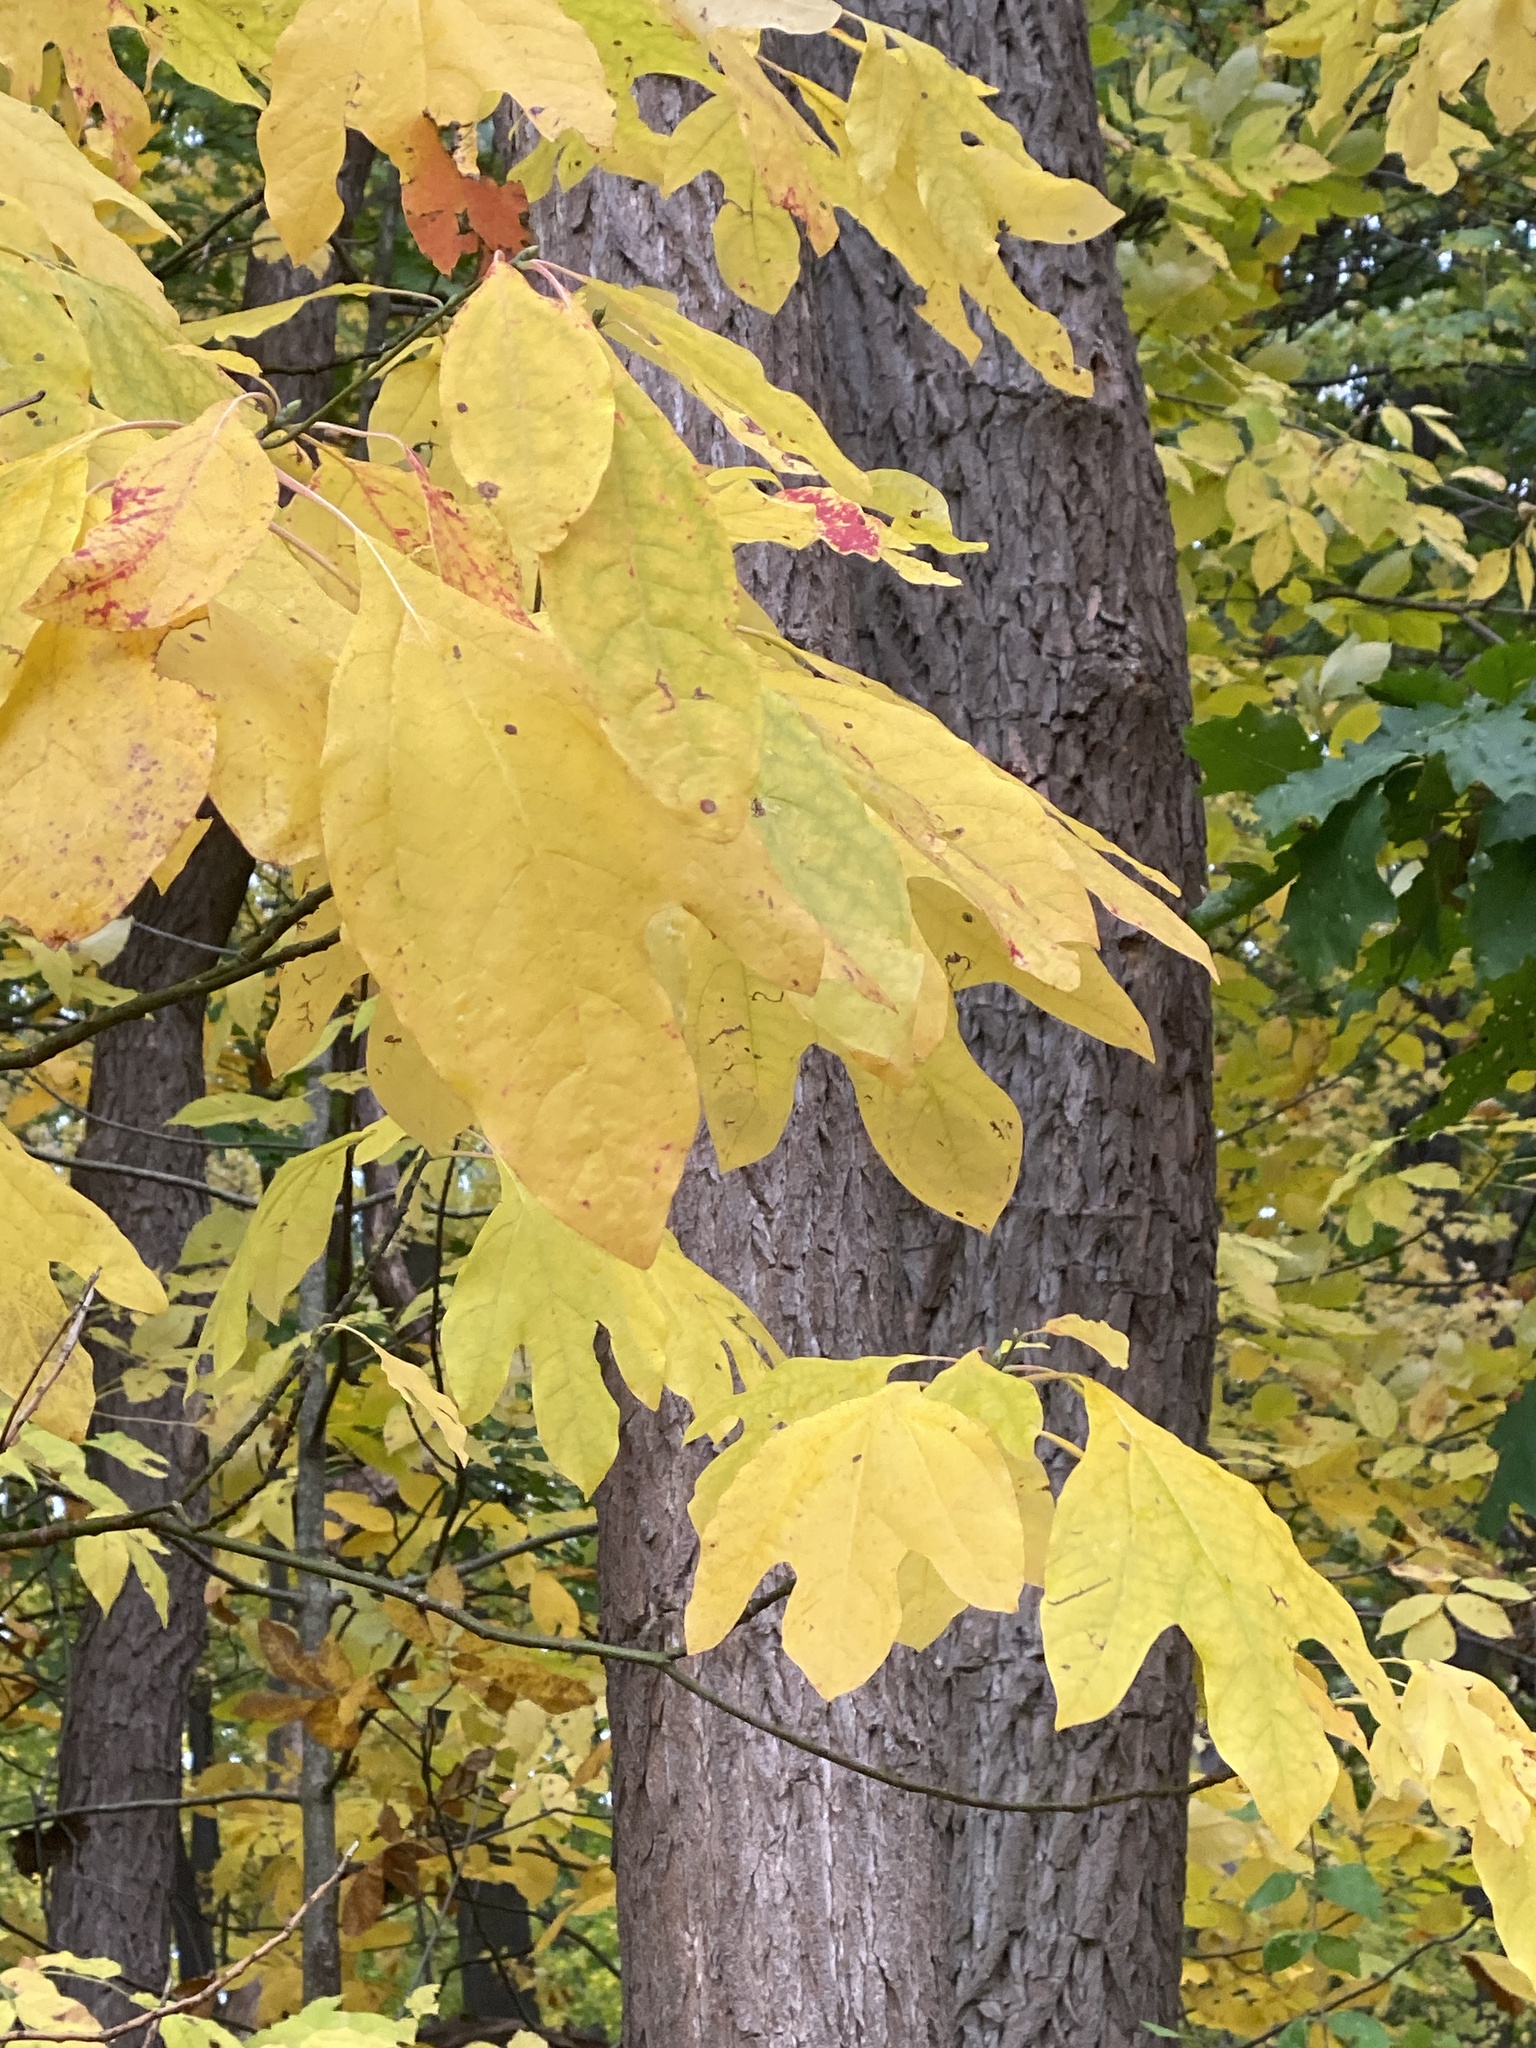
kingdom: Plantae
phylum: Tracheophyta
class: Magnoliopsida
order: Laurales
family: Lauraceae
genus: Sassafras
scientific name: Sassafras albidum
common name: Sassafras
